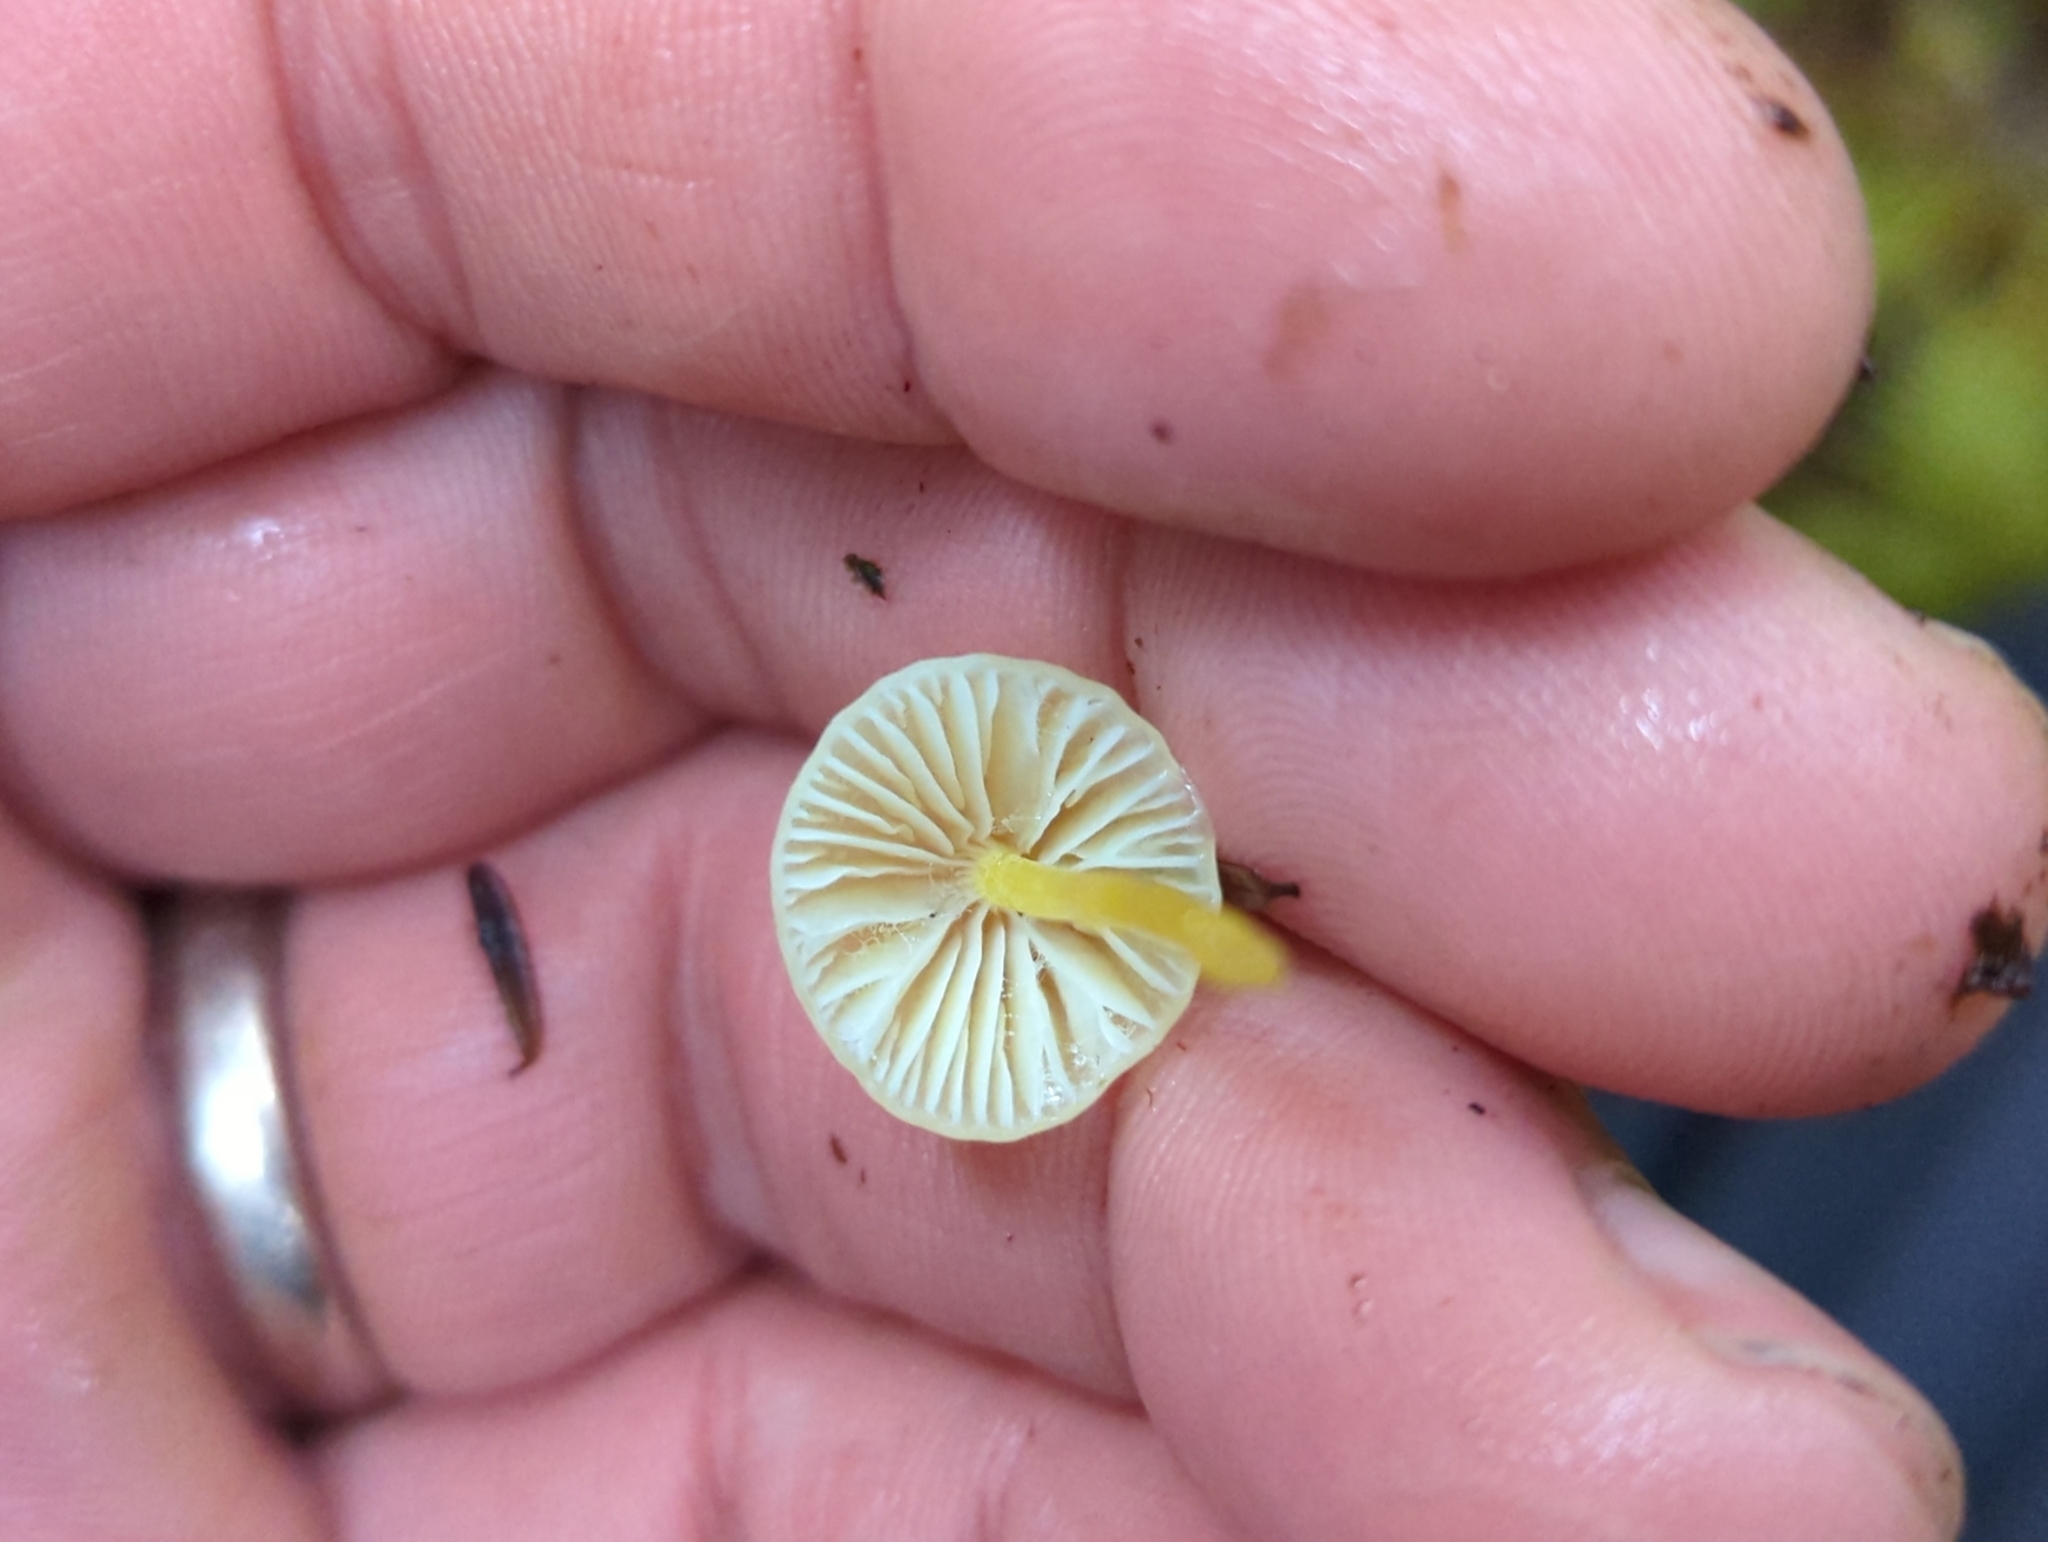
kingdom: Fungi
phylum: Basidiomycota
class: Agaricomycetes
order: Agaricales
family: Mycenaceae
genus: Mycena
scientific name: Mycena epipterygia
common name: Yellowleg bonnet
